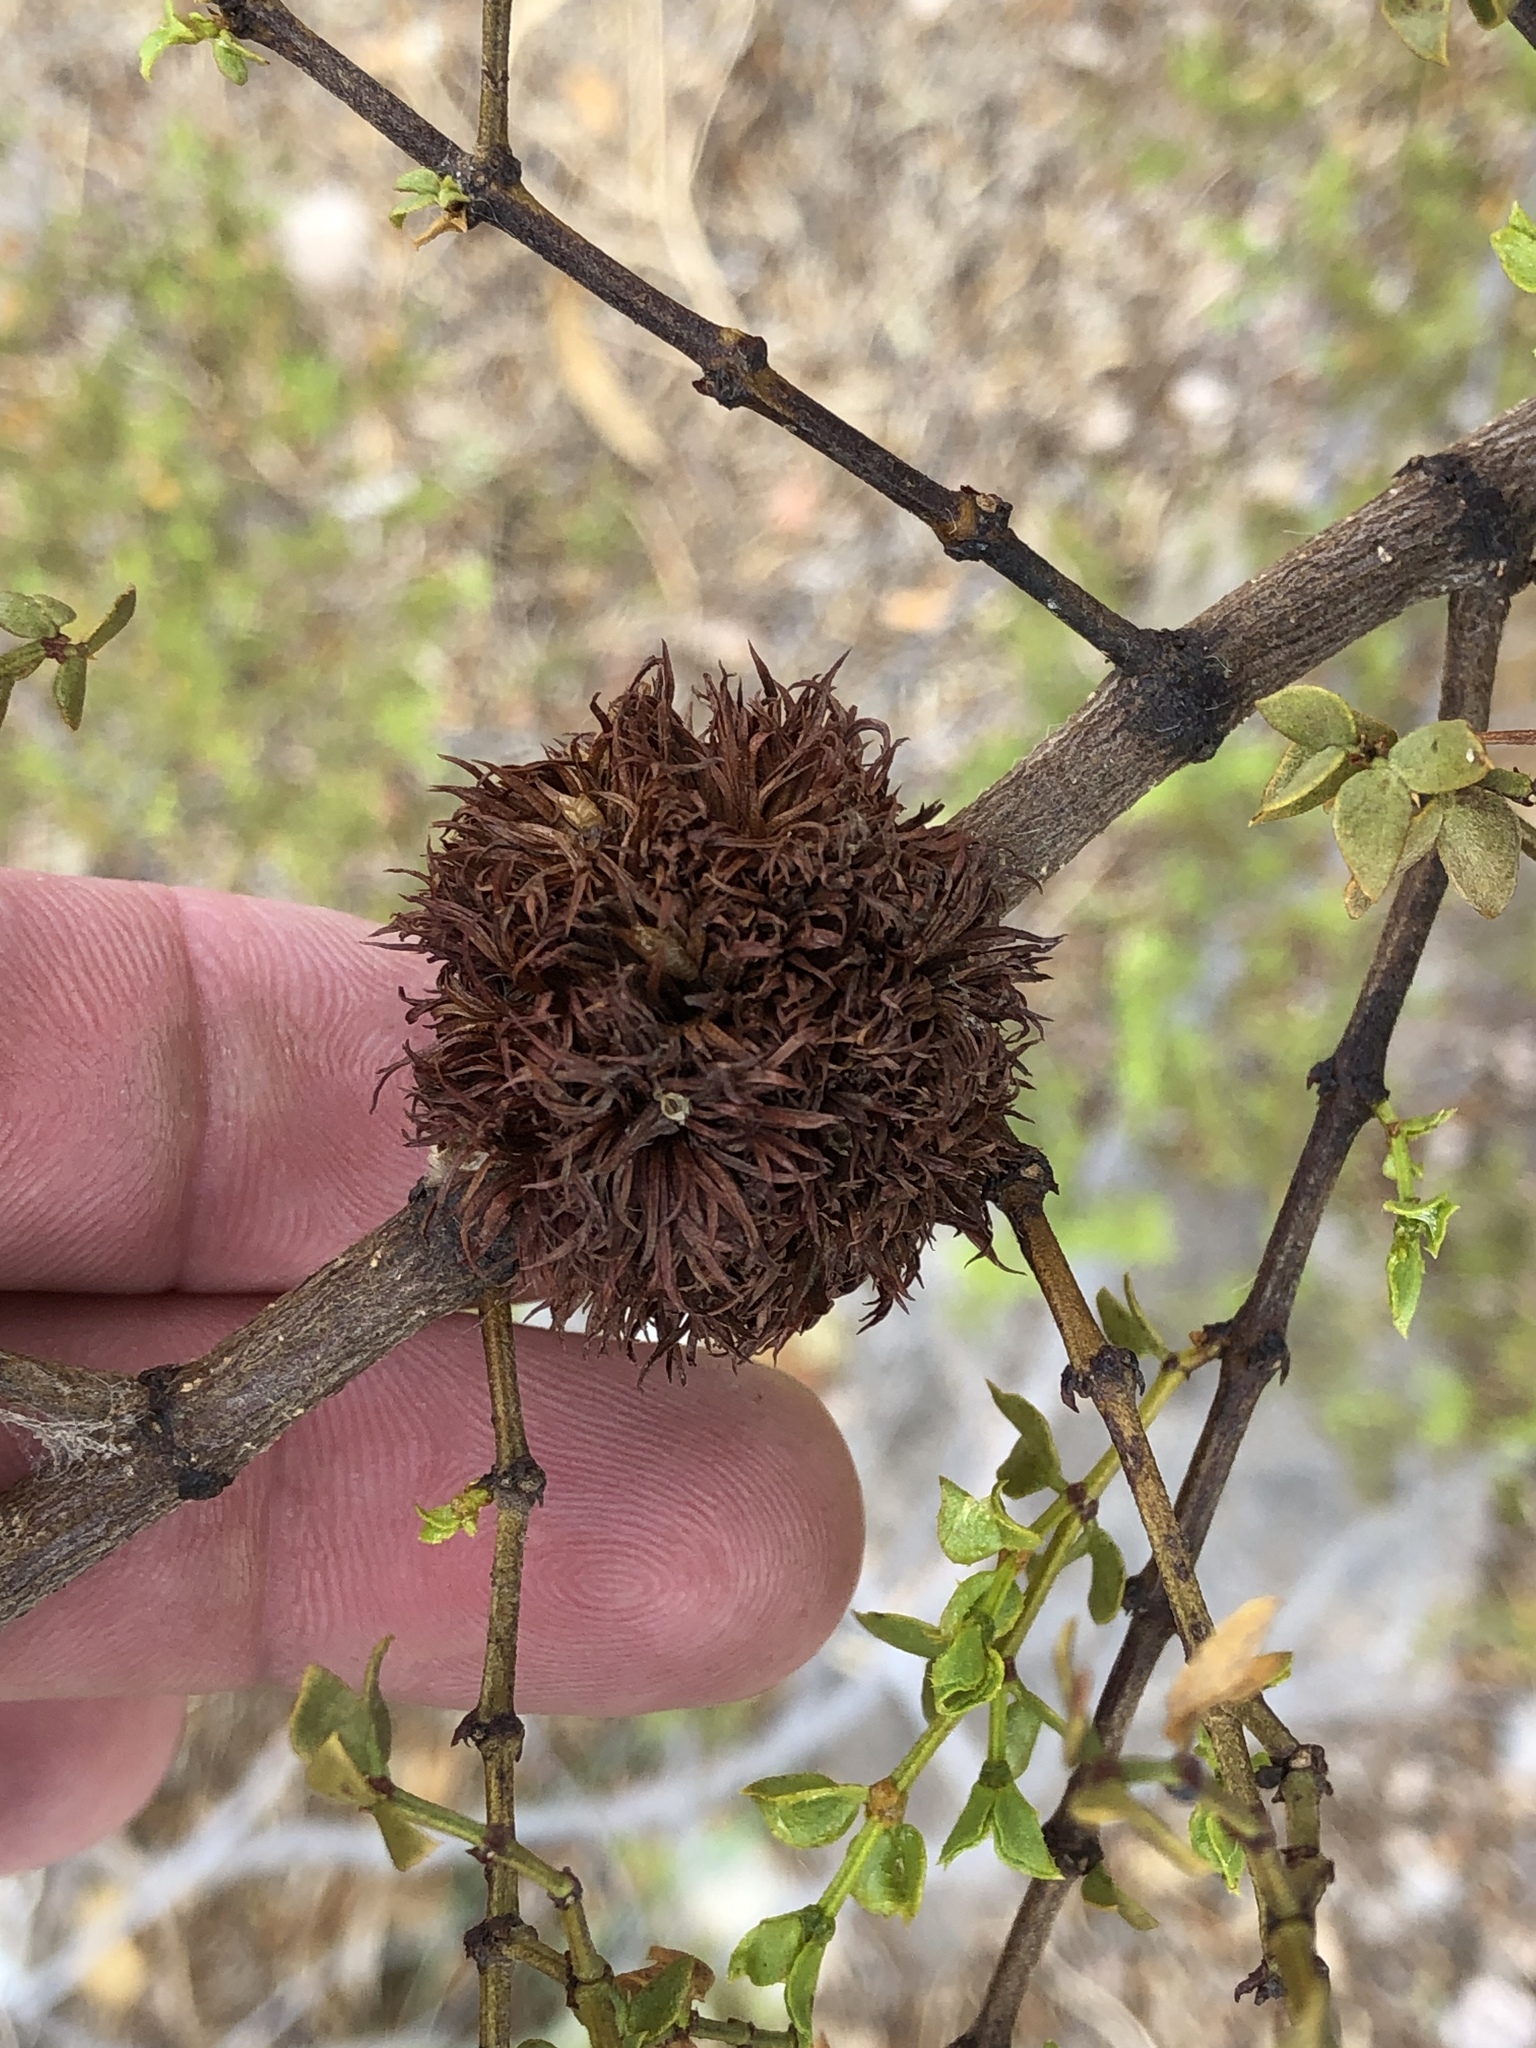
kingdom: Animalia
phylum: Arthropoda
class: Insecta
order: Diptera
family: Cecidomyiidae
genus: Asphondylia
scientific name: Asphondylia auripila
